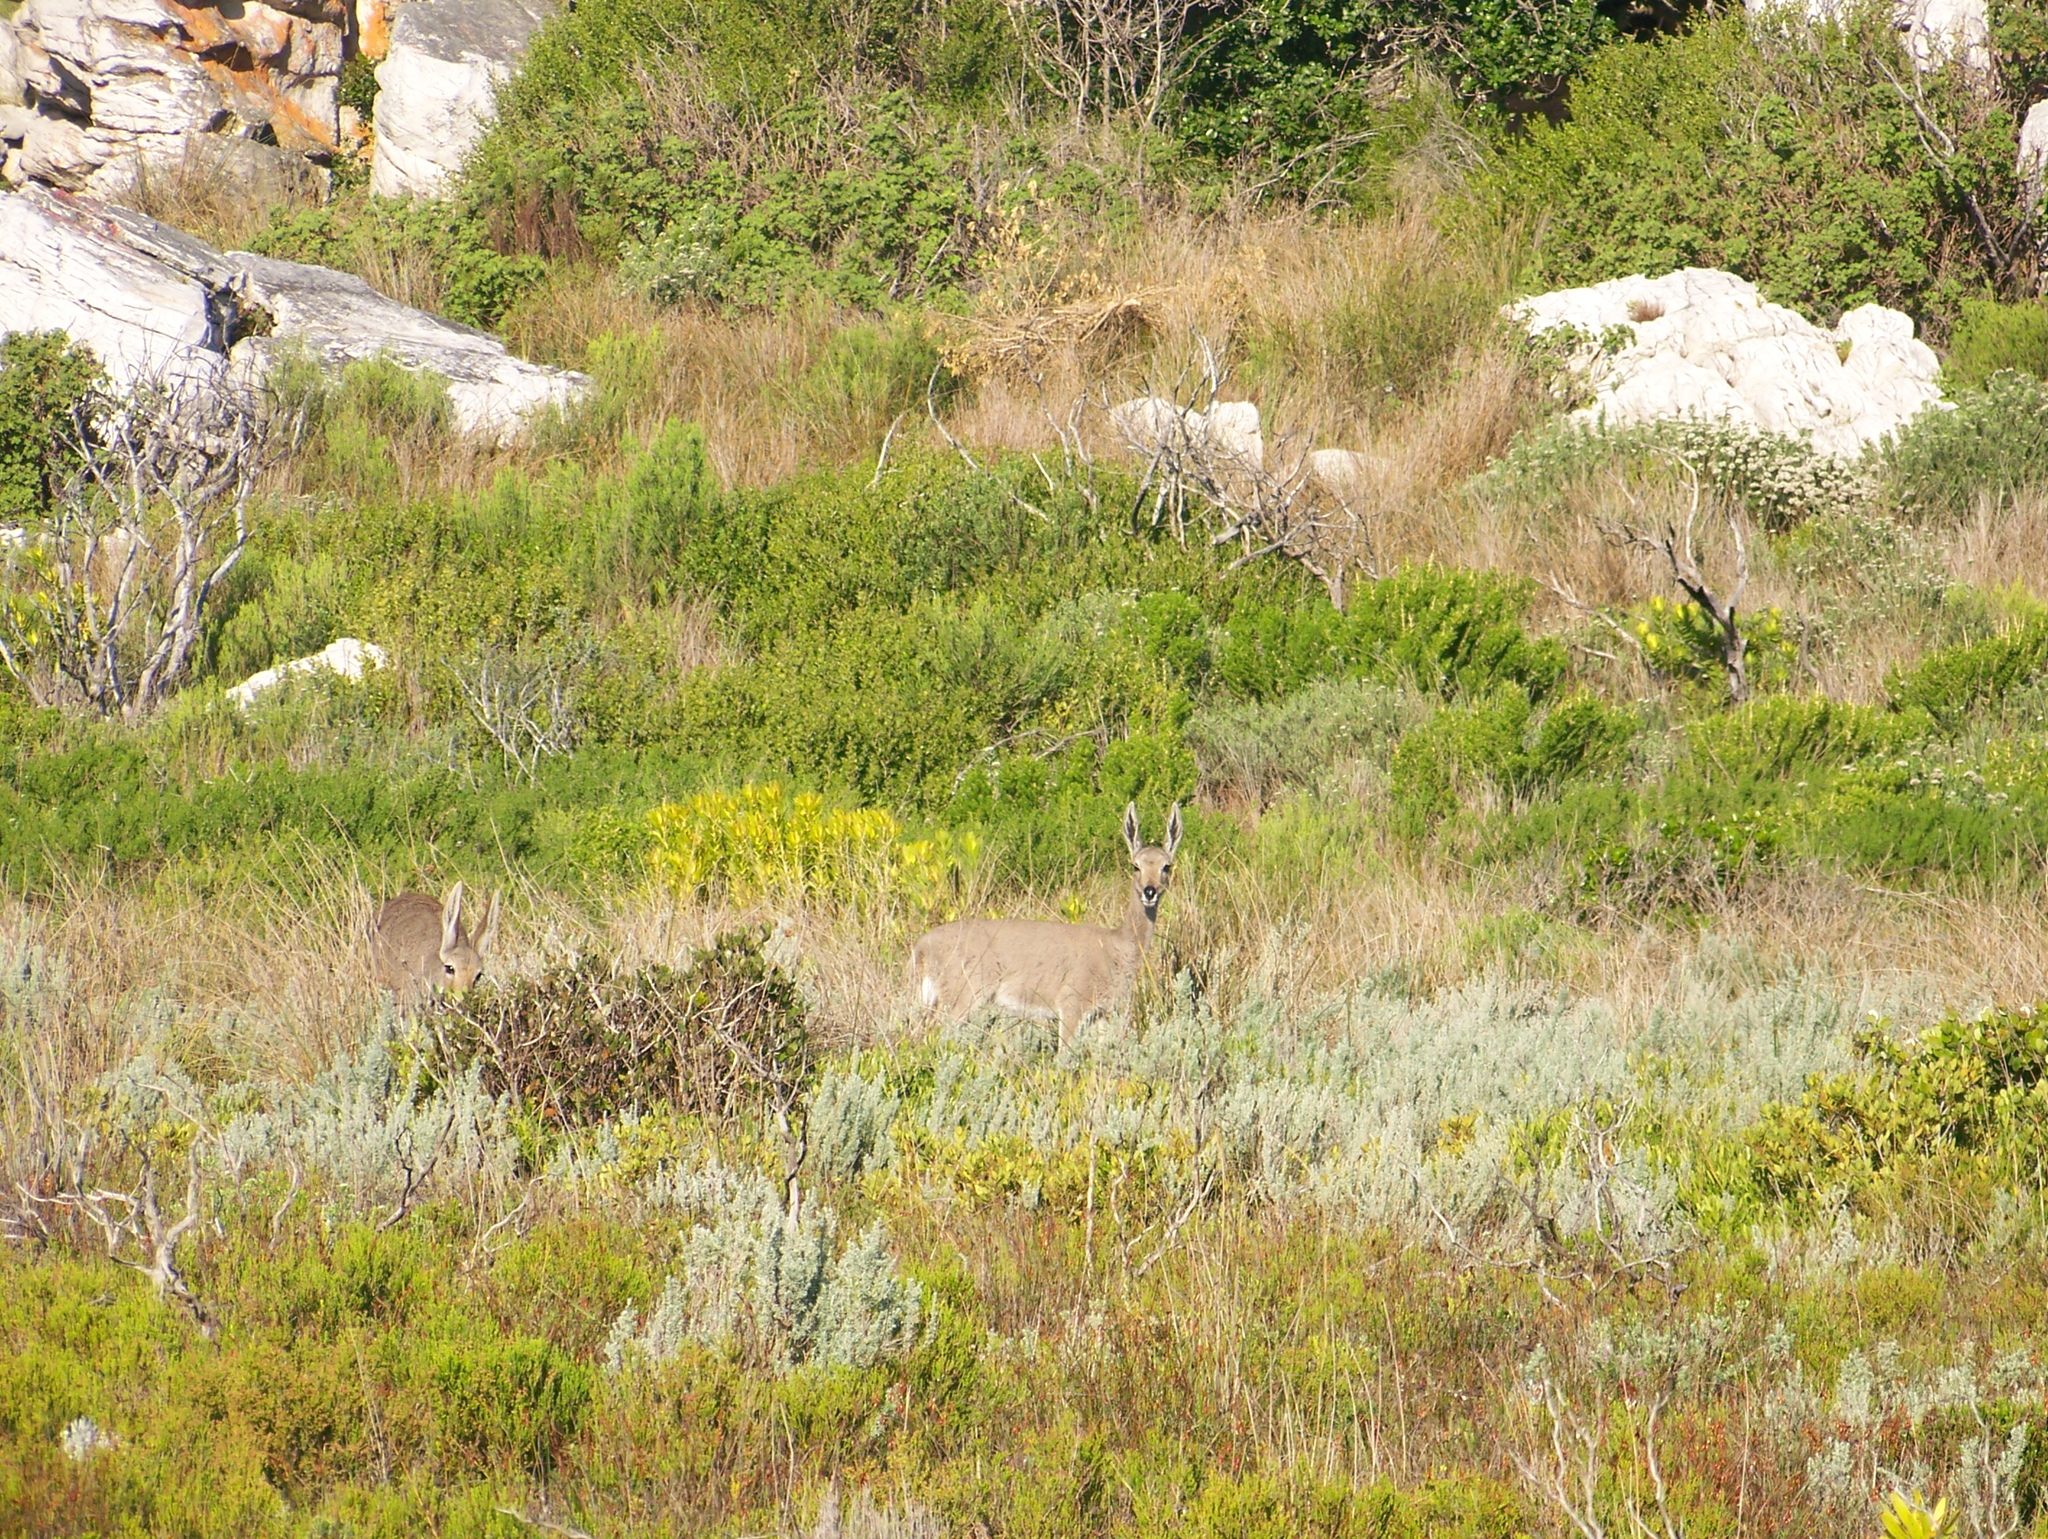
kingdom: Animalia
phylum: Chordata
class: Mammalia
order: Artiodactyla
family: Bovidae
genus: Pelea
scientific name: Pelea capreolus
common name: Common rhebok
